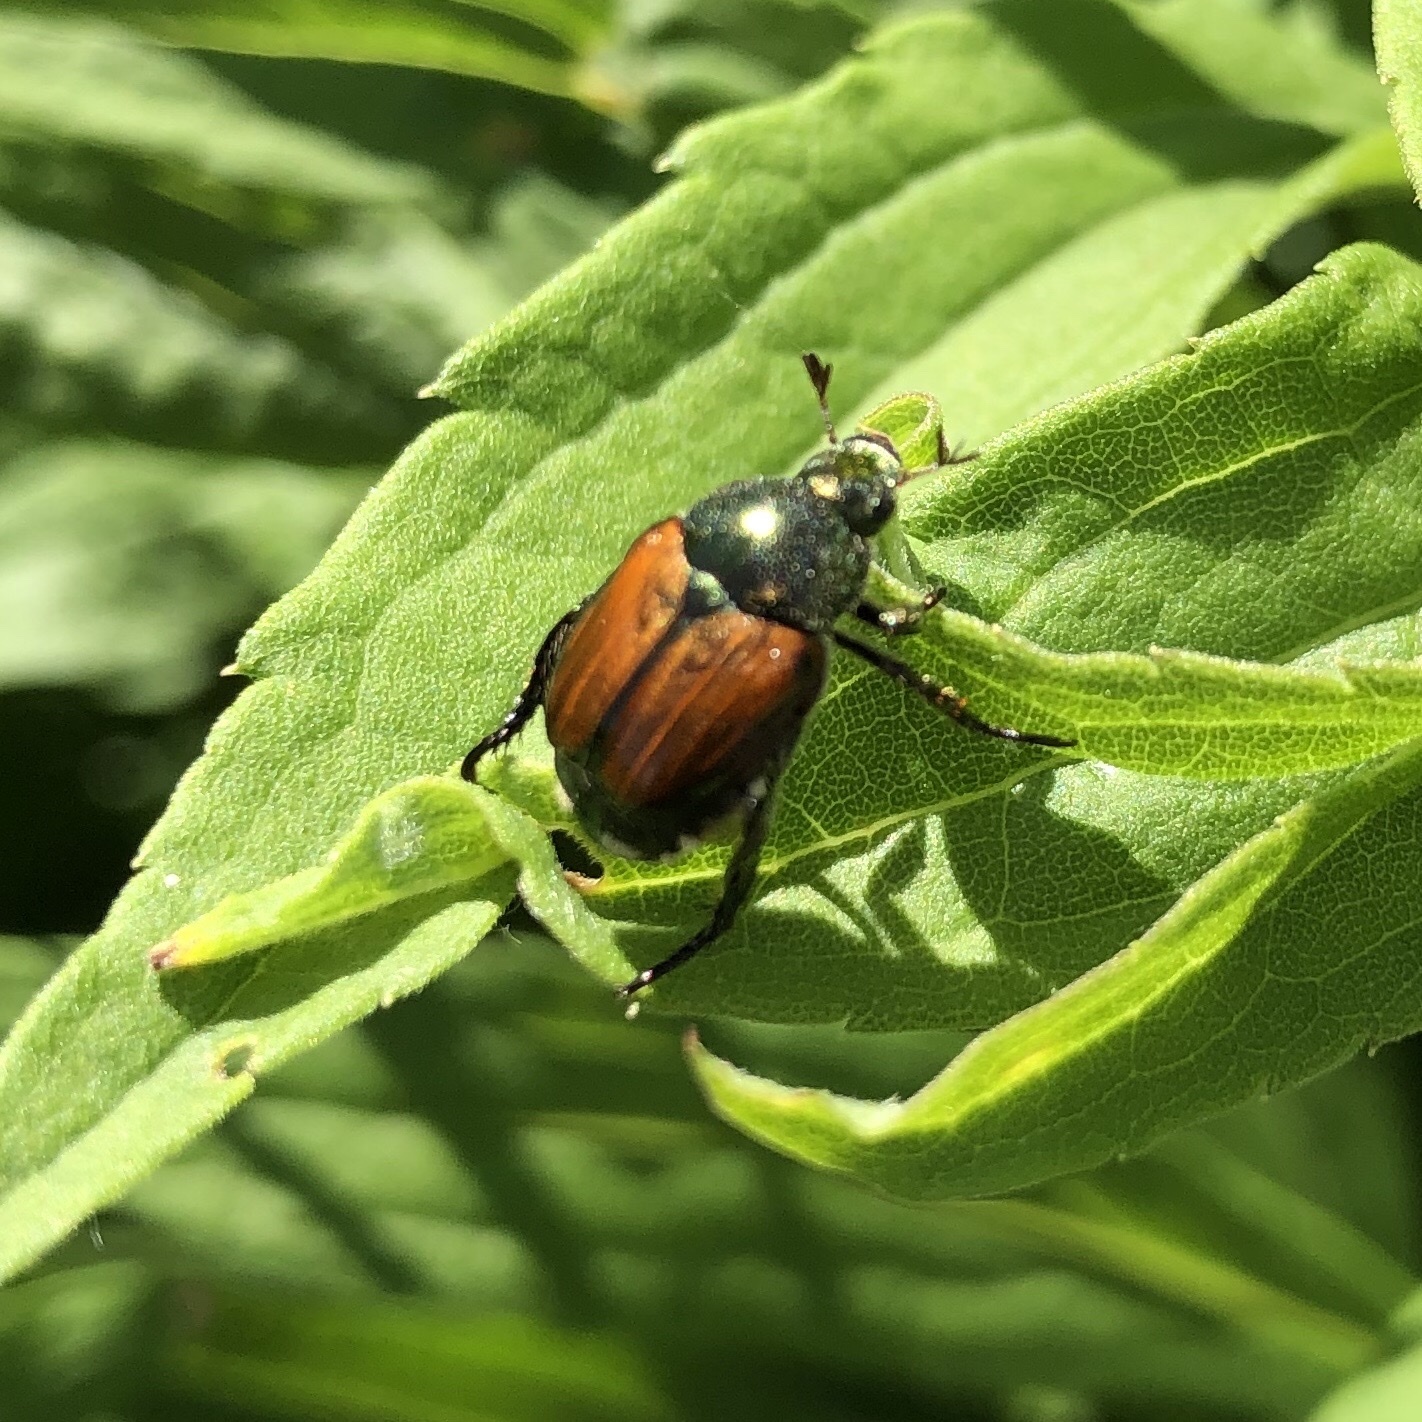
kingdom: Animalia
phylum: Arthropoda
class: Insecta
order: Coleoptera
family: Scarabaeidae
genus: Popillia
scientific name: Popillia japonica
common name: Japanese beetle
